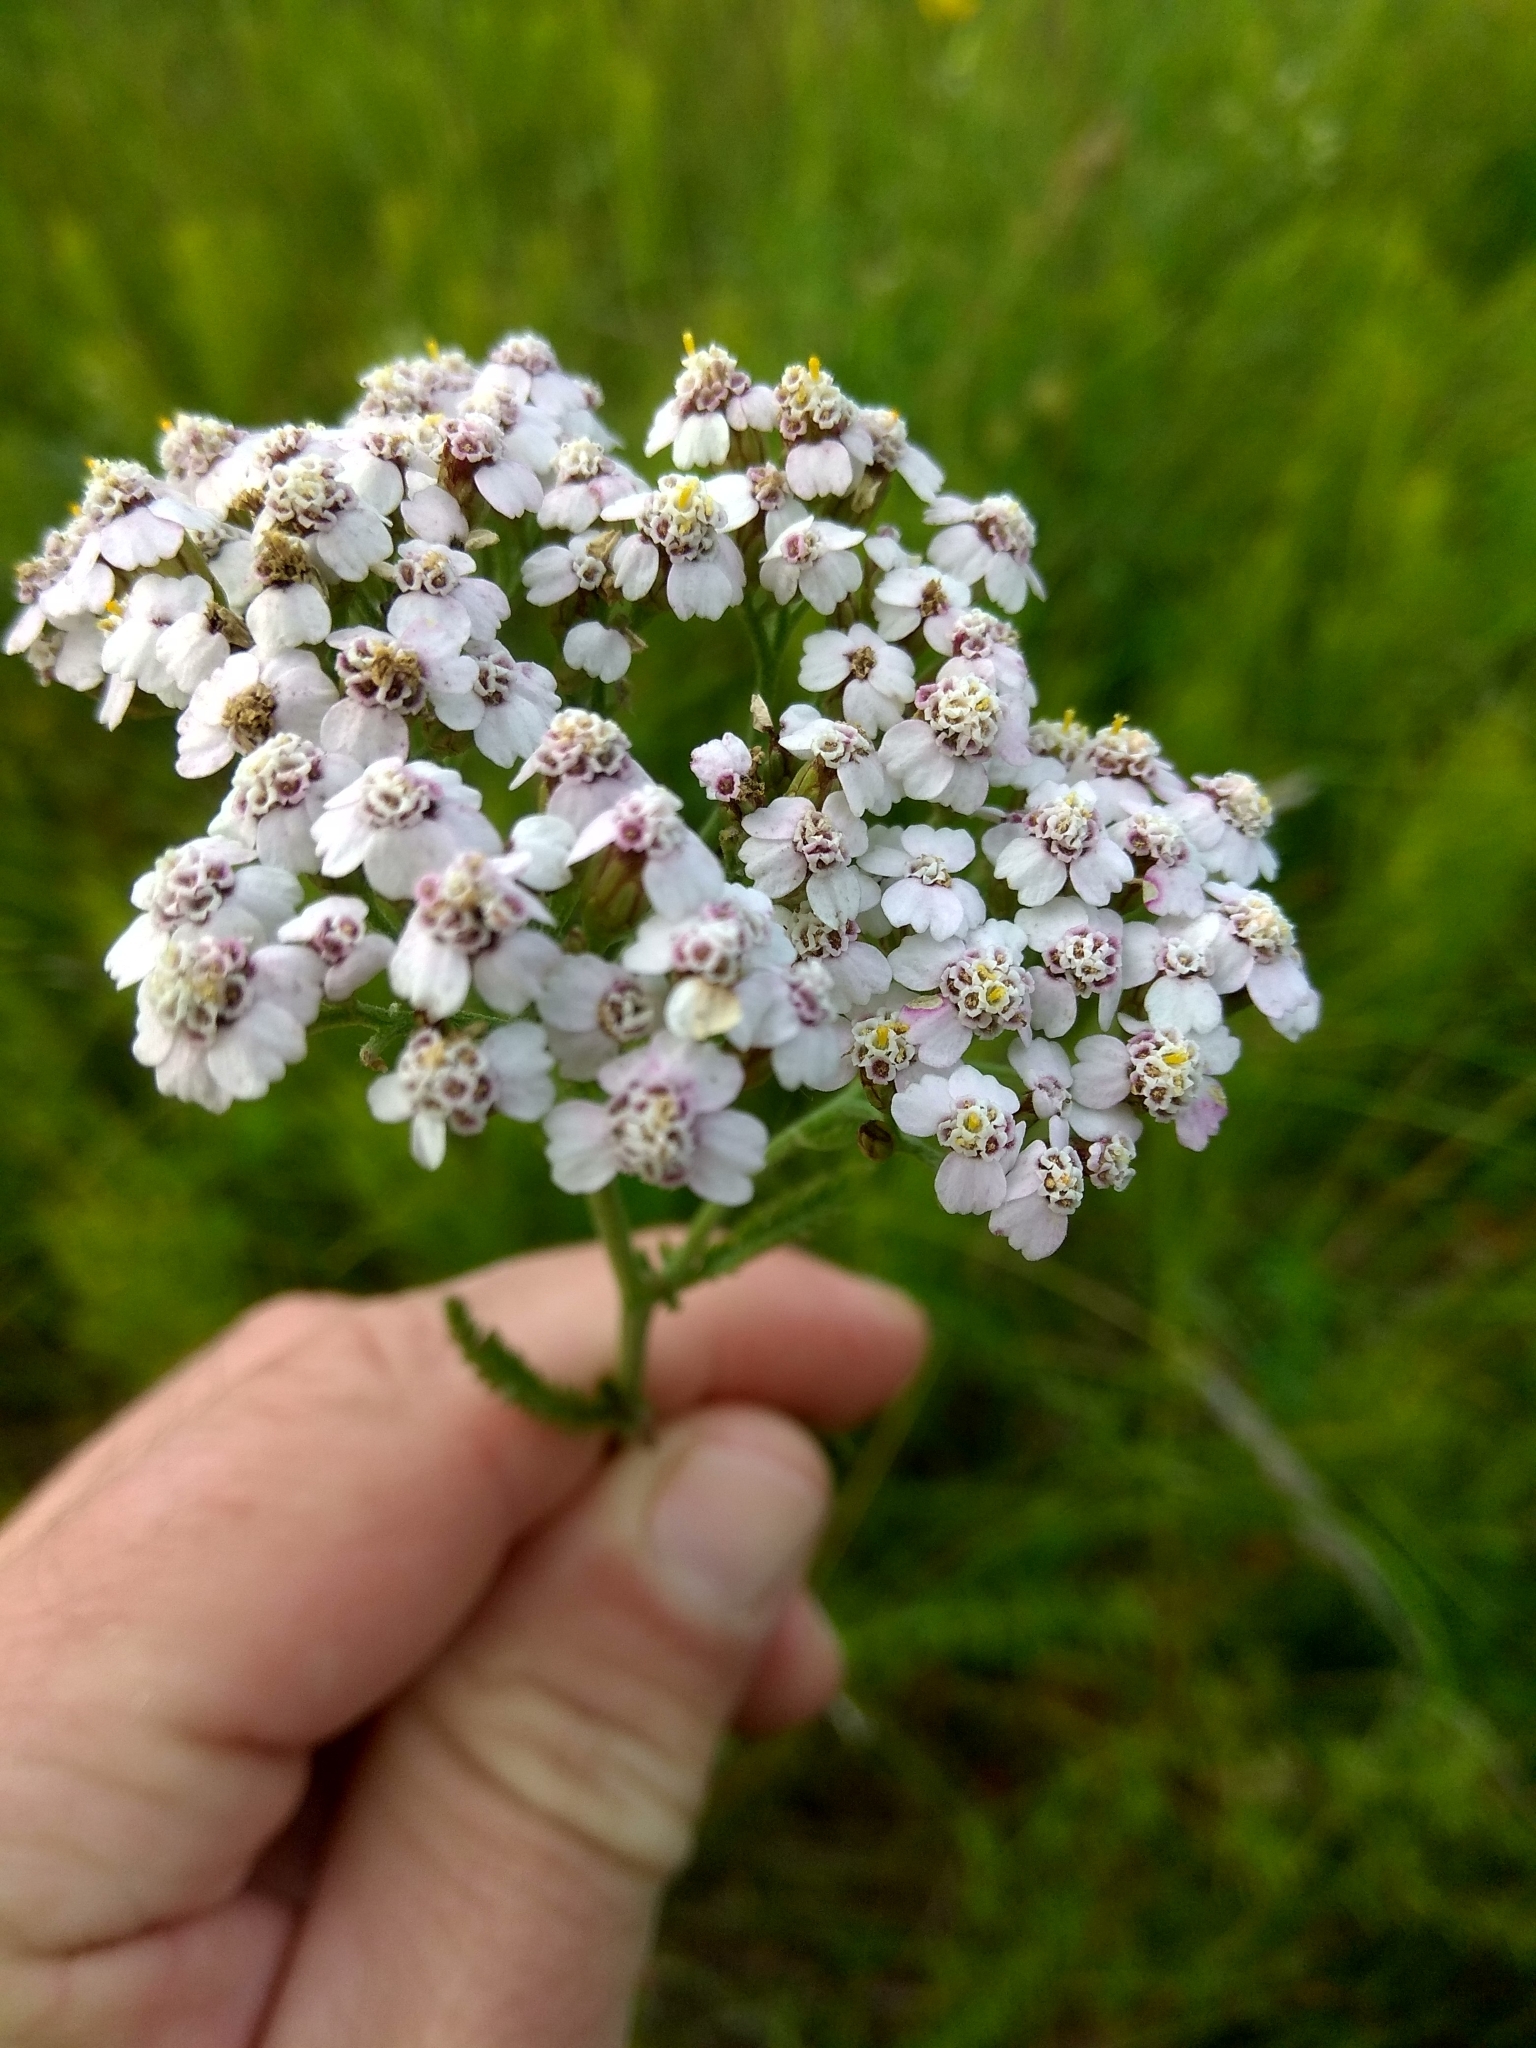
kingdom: Plantae
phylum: Tracheophyta
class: Magnoliopsida
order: Asterales
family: Asteraceae
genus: Achillea
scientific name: Achillea millefolium
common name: Yarrow
